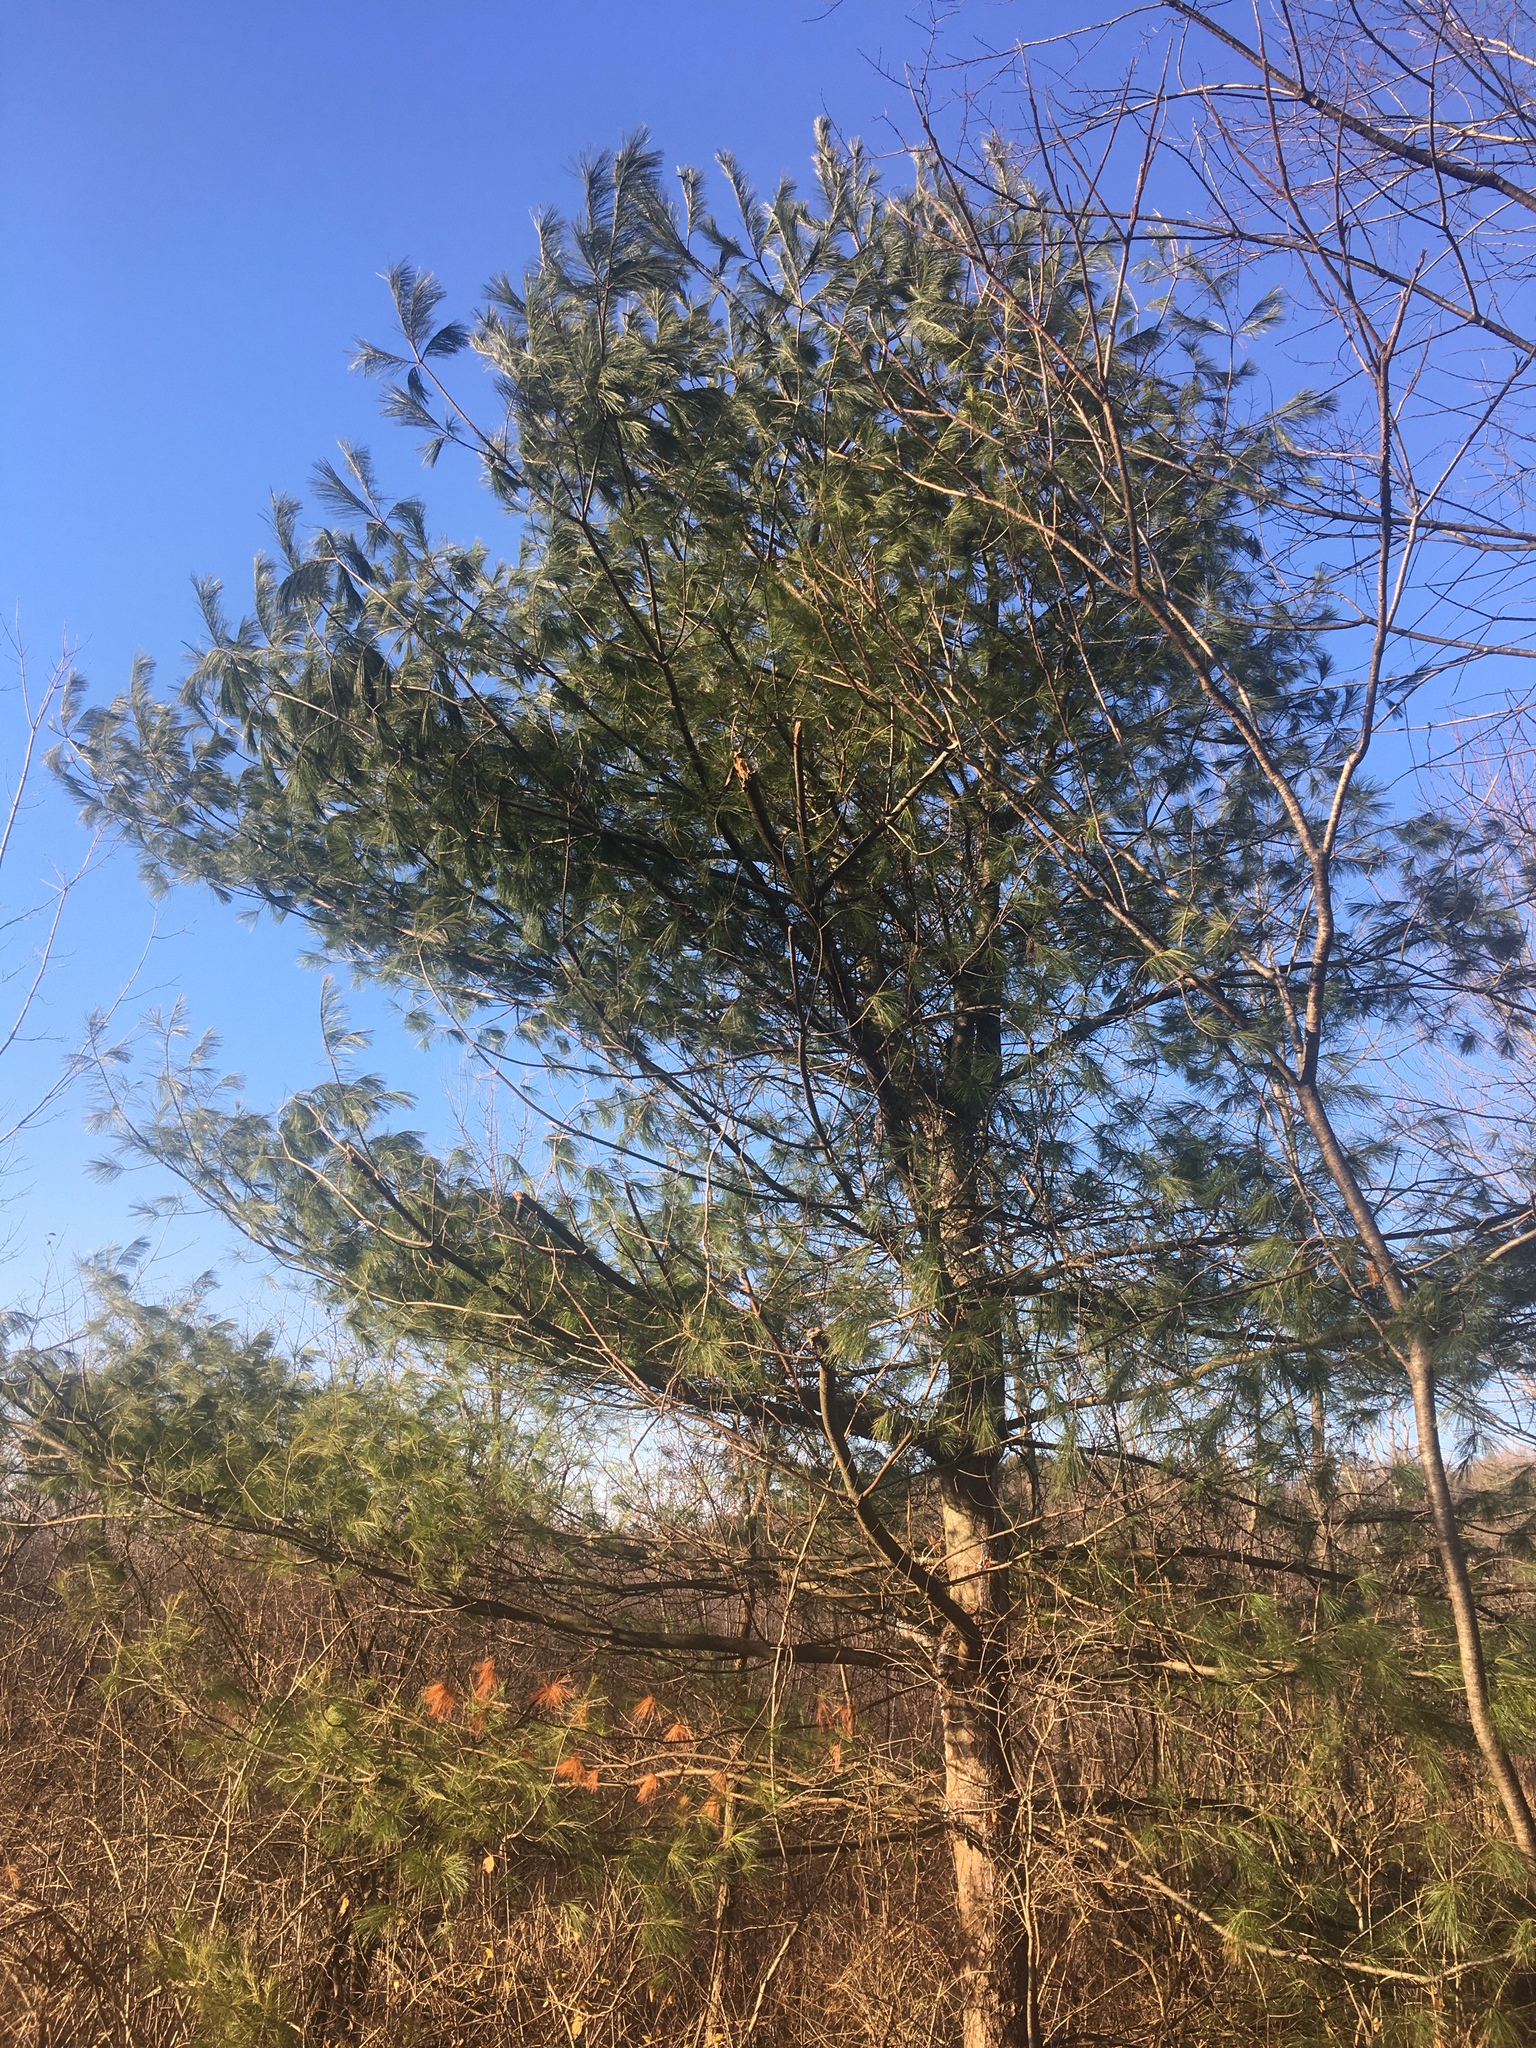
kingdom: Plantae
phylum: Tracheophyta
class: Pinopsida
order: Pinales
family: Pinaceae
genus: Pinus
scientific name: Pinus strobus
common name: Weymouth pine
